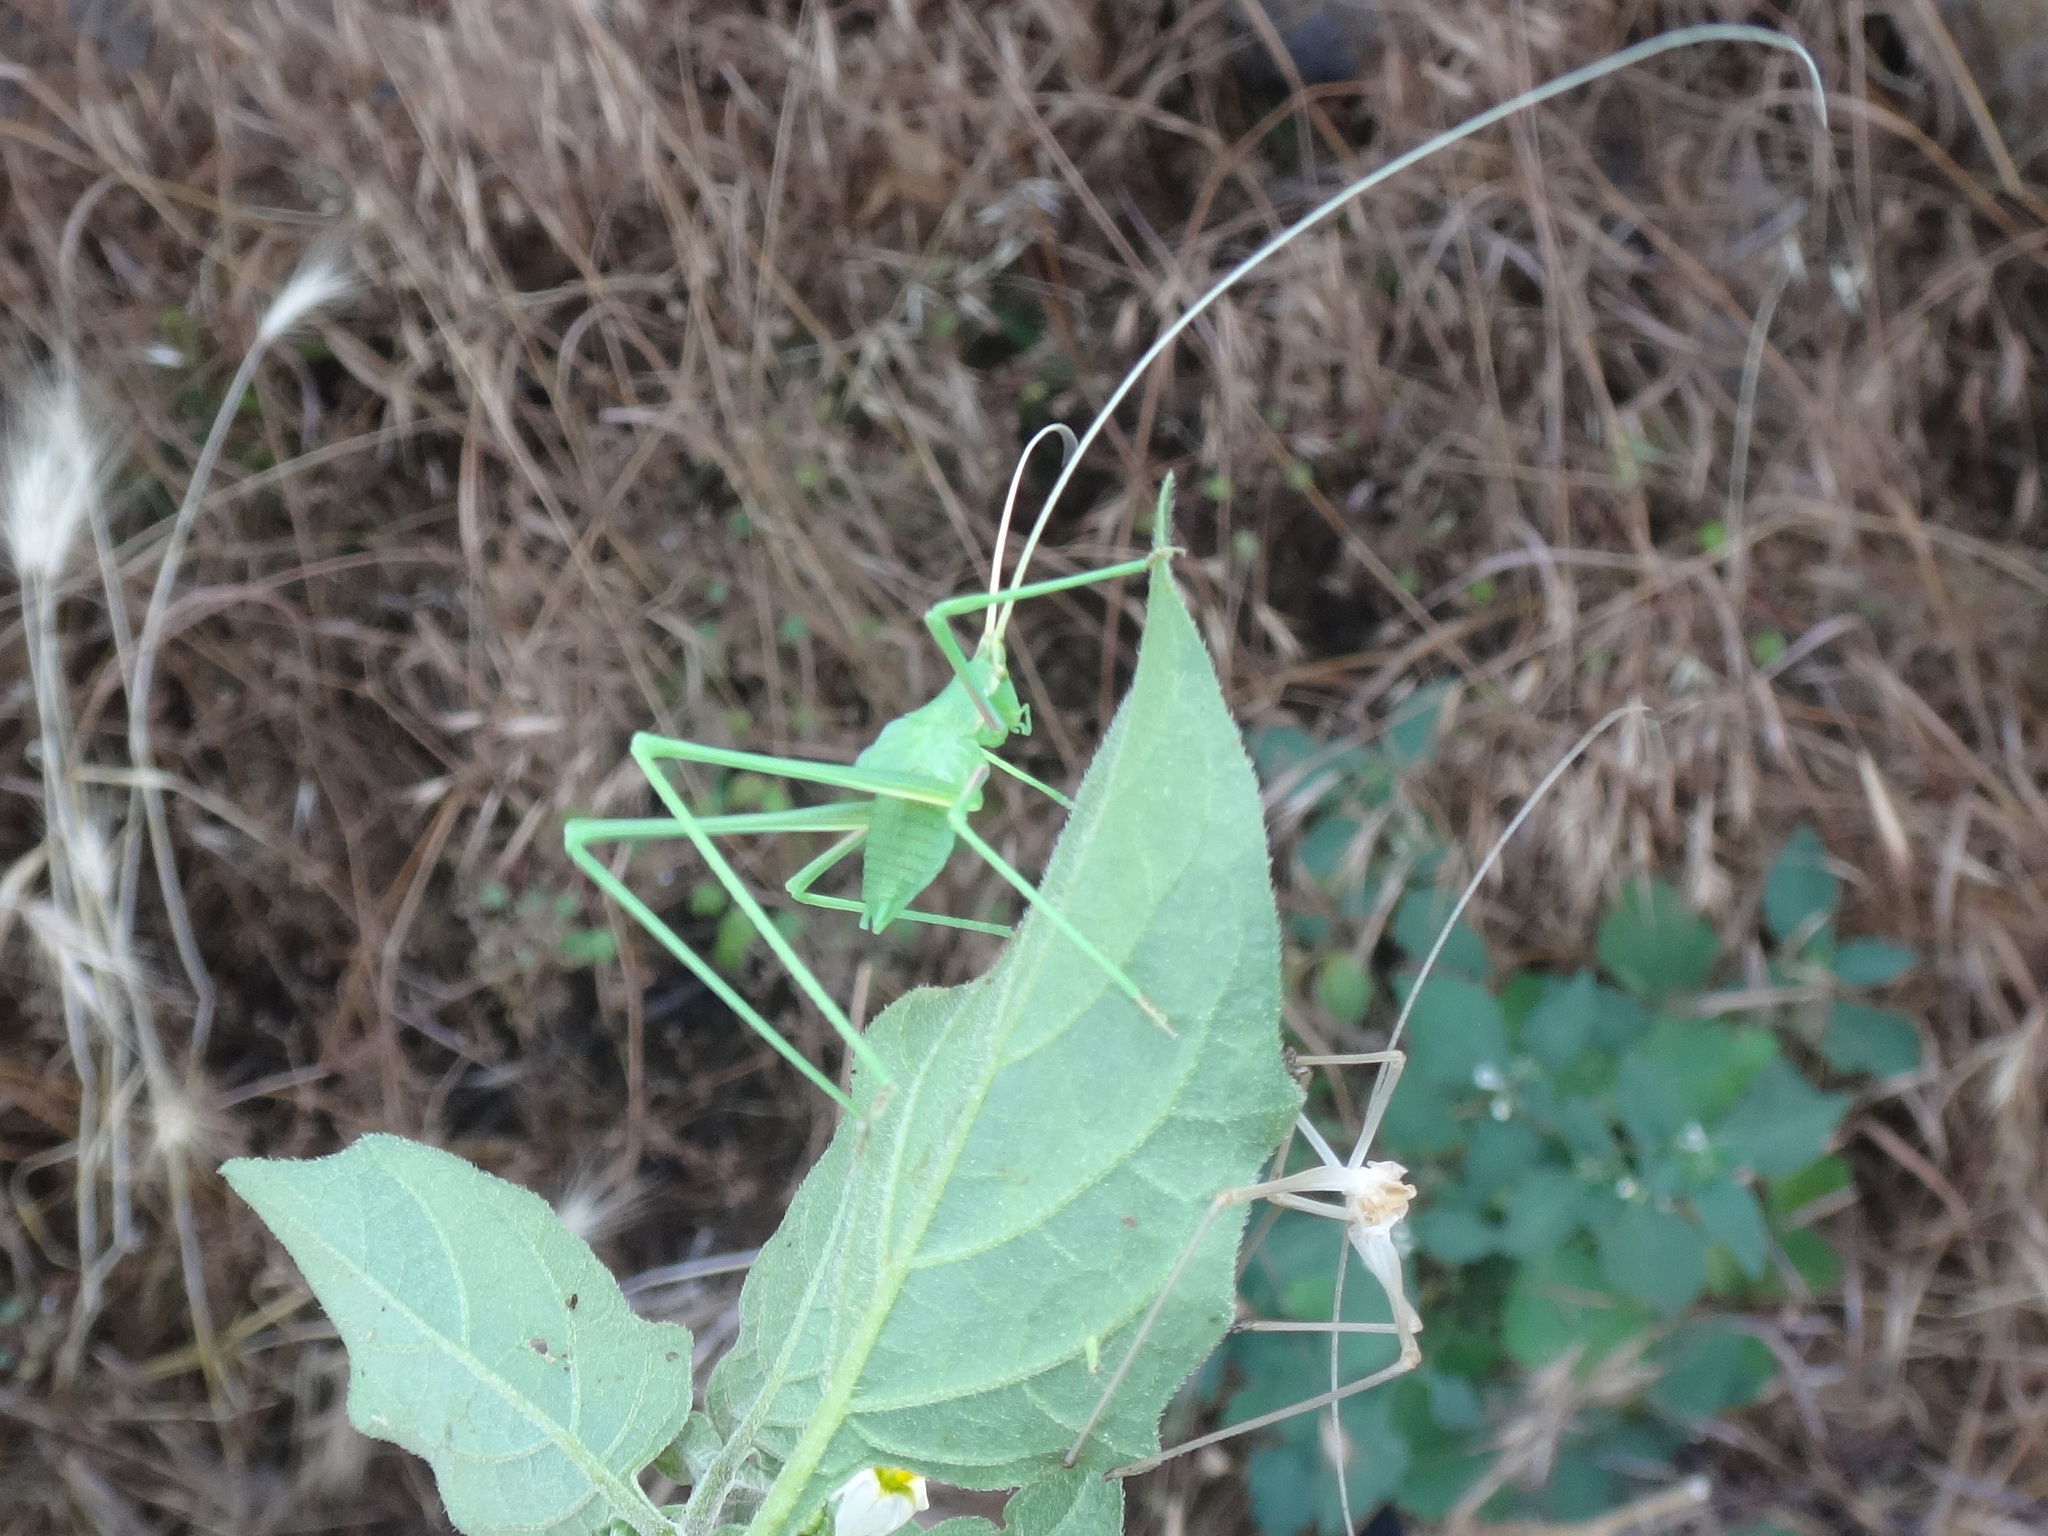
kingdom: Animalia
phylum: Arthropoda
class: Insecta
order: Orthoptera
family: Tettigoniidae
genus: Acrometopa
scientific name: Acrometopa macropoda
